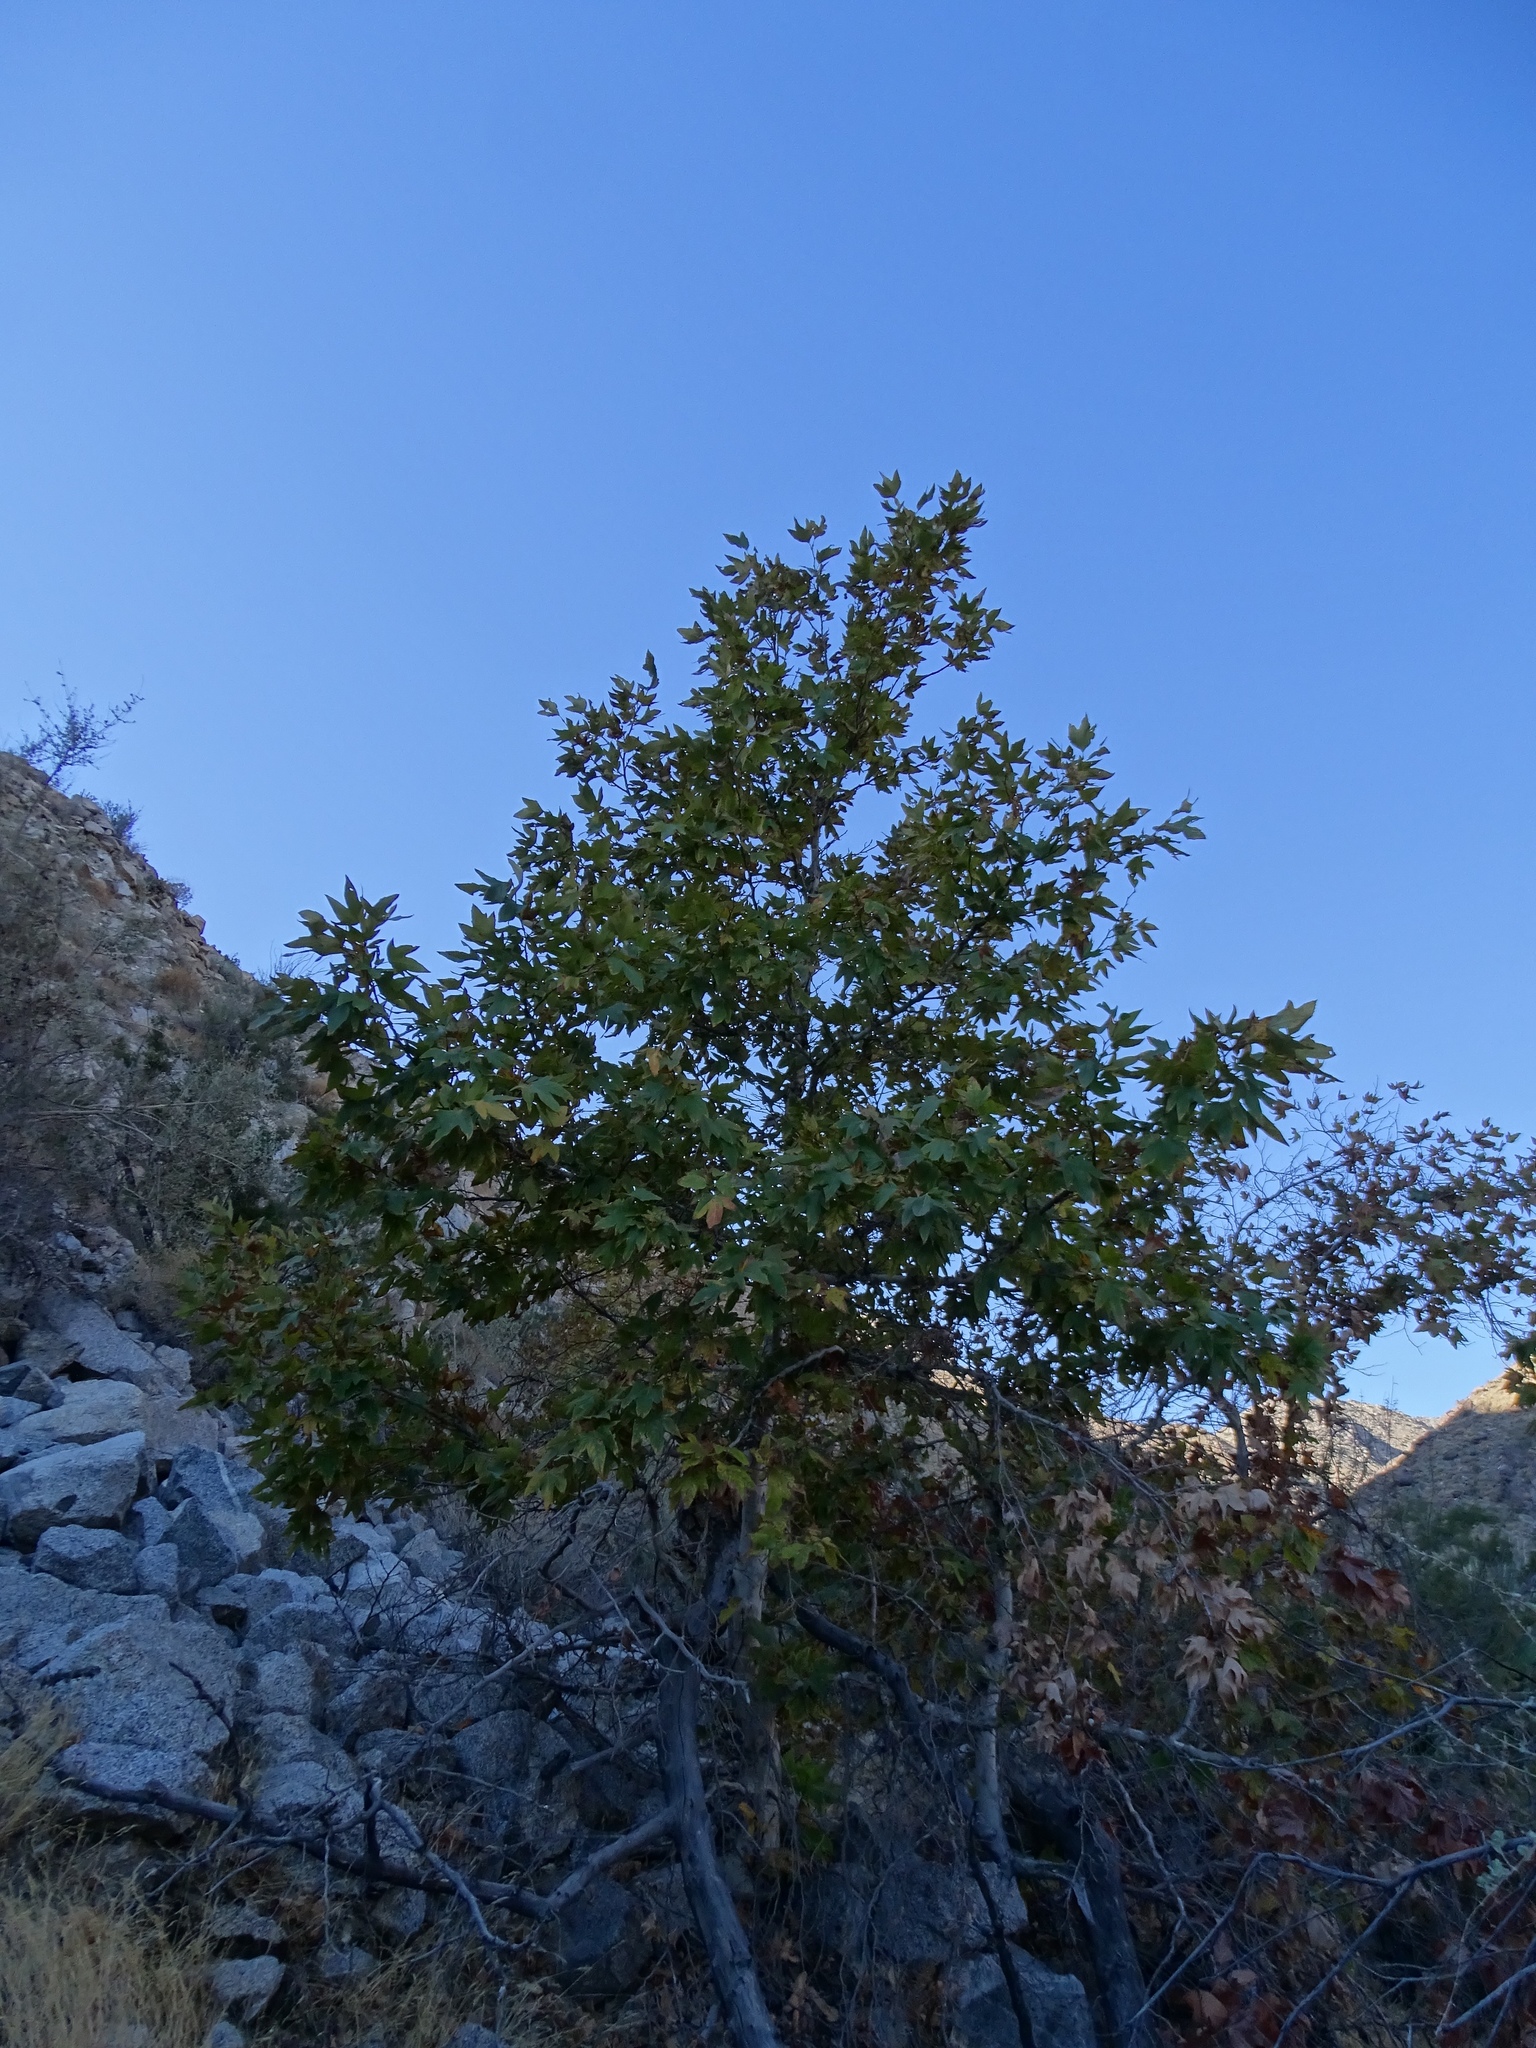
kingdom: Plantae
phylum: Tracheophyta
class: Magnoliopsida
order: Proteales
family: Platanaceae
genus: Platanus
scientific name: Platanus racemosa
